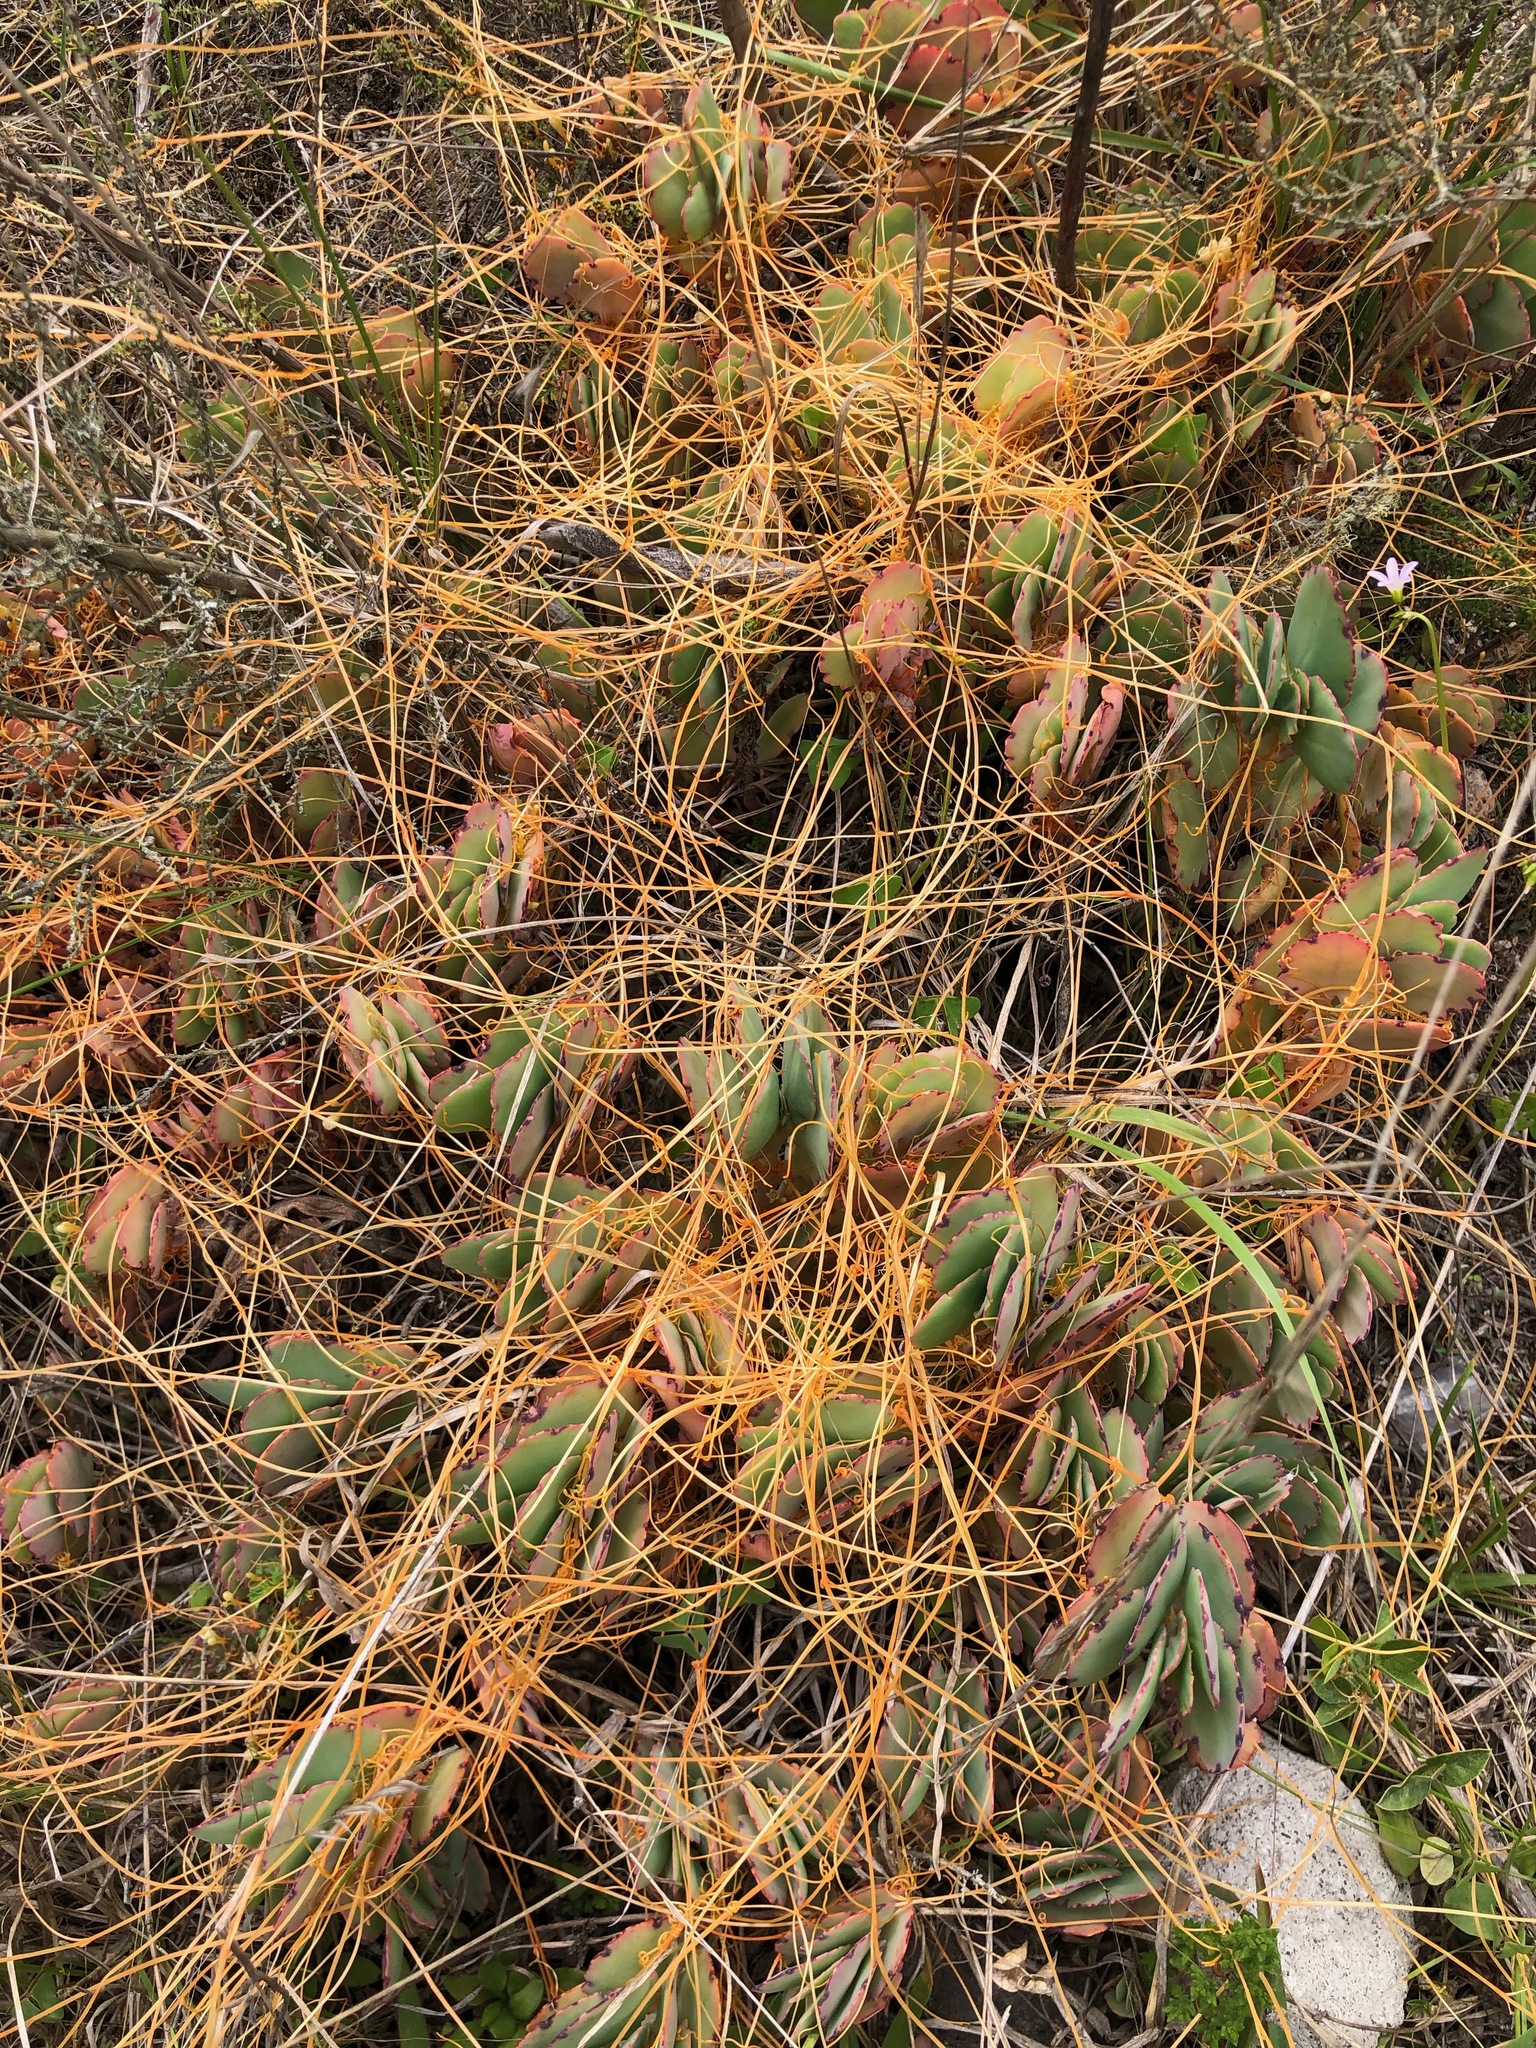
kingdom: Plantae
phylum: Tracheophyta
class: Magnoliopsida
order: Solanales
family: Convolvulaceae
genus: Cuscuta
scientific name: Cuscuta stenolepis
